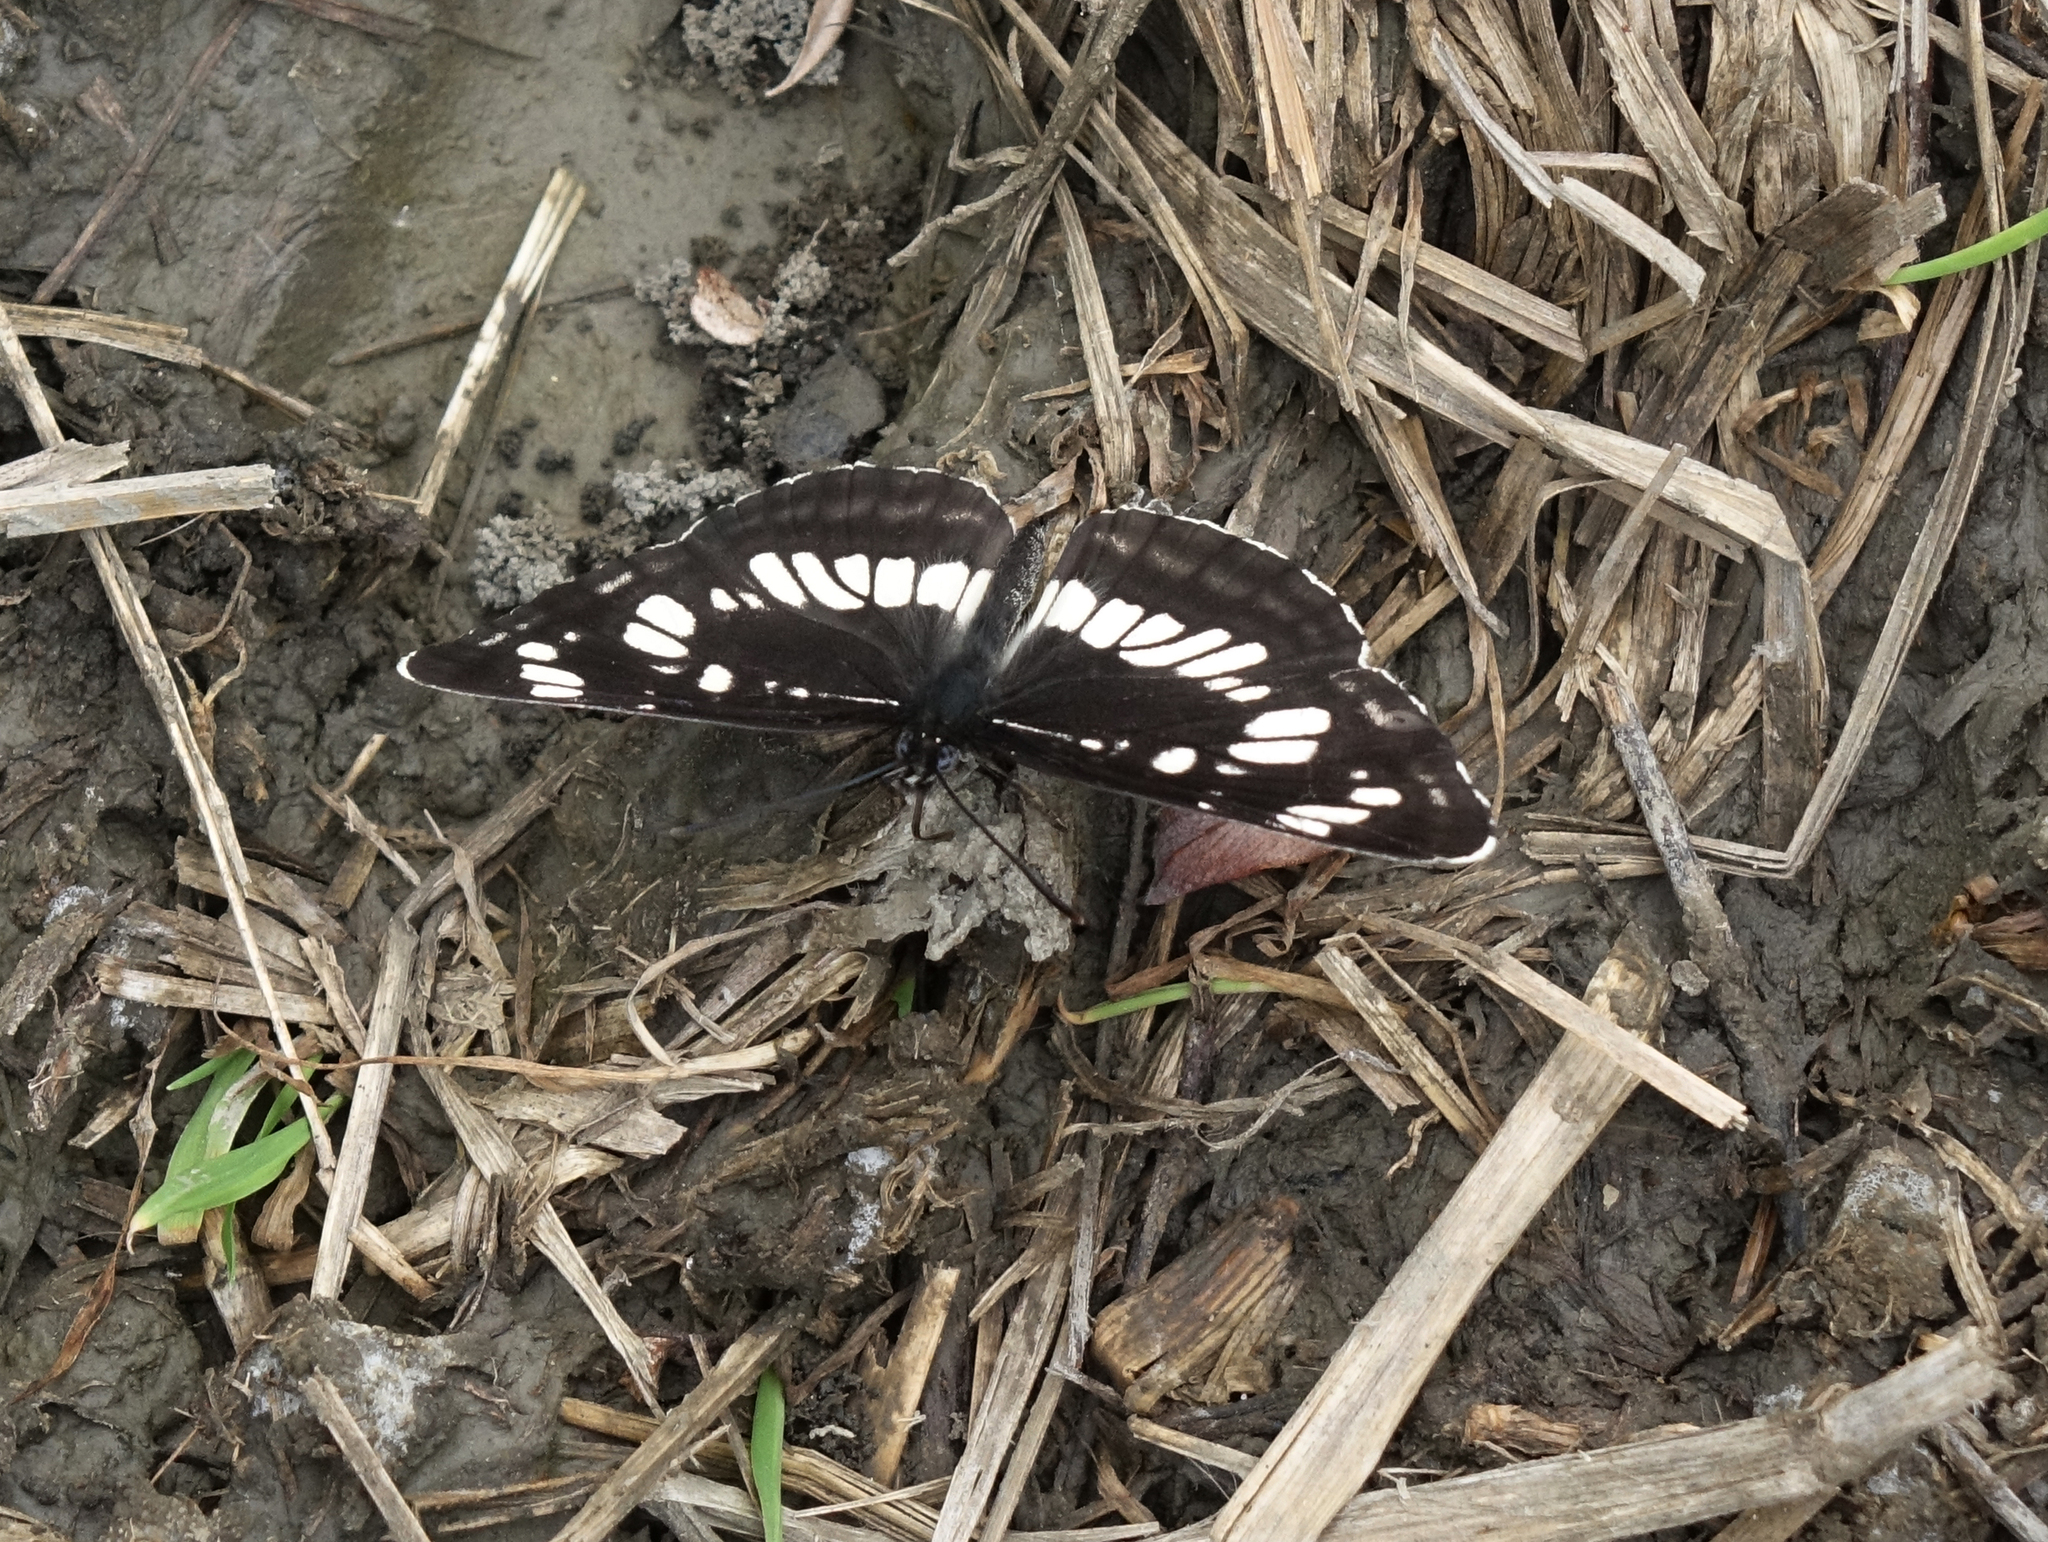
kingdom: Animalia
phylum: Arthropoda
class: Insecta
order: Lepidoptera
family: Nymphalidae
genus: Neptis
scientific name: Neptis rivularis
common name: Hungarian glider
